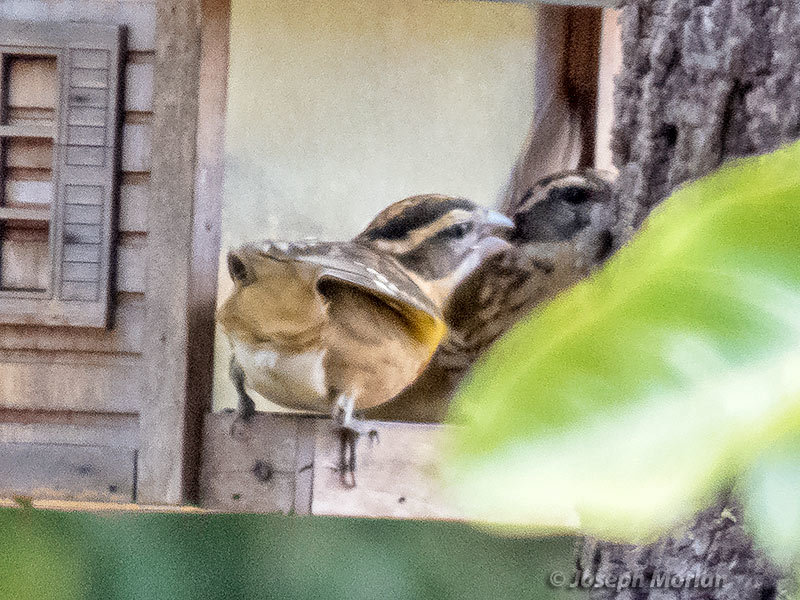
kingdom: Animalia
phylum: Chordata
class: Aves
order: Passeriformes
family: Cardinalidae
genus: Pheucticus
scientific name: Pheucticus melanocephalus
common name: Black-headed grosbeak
